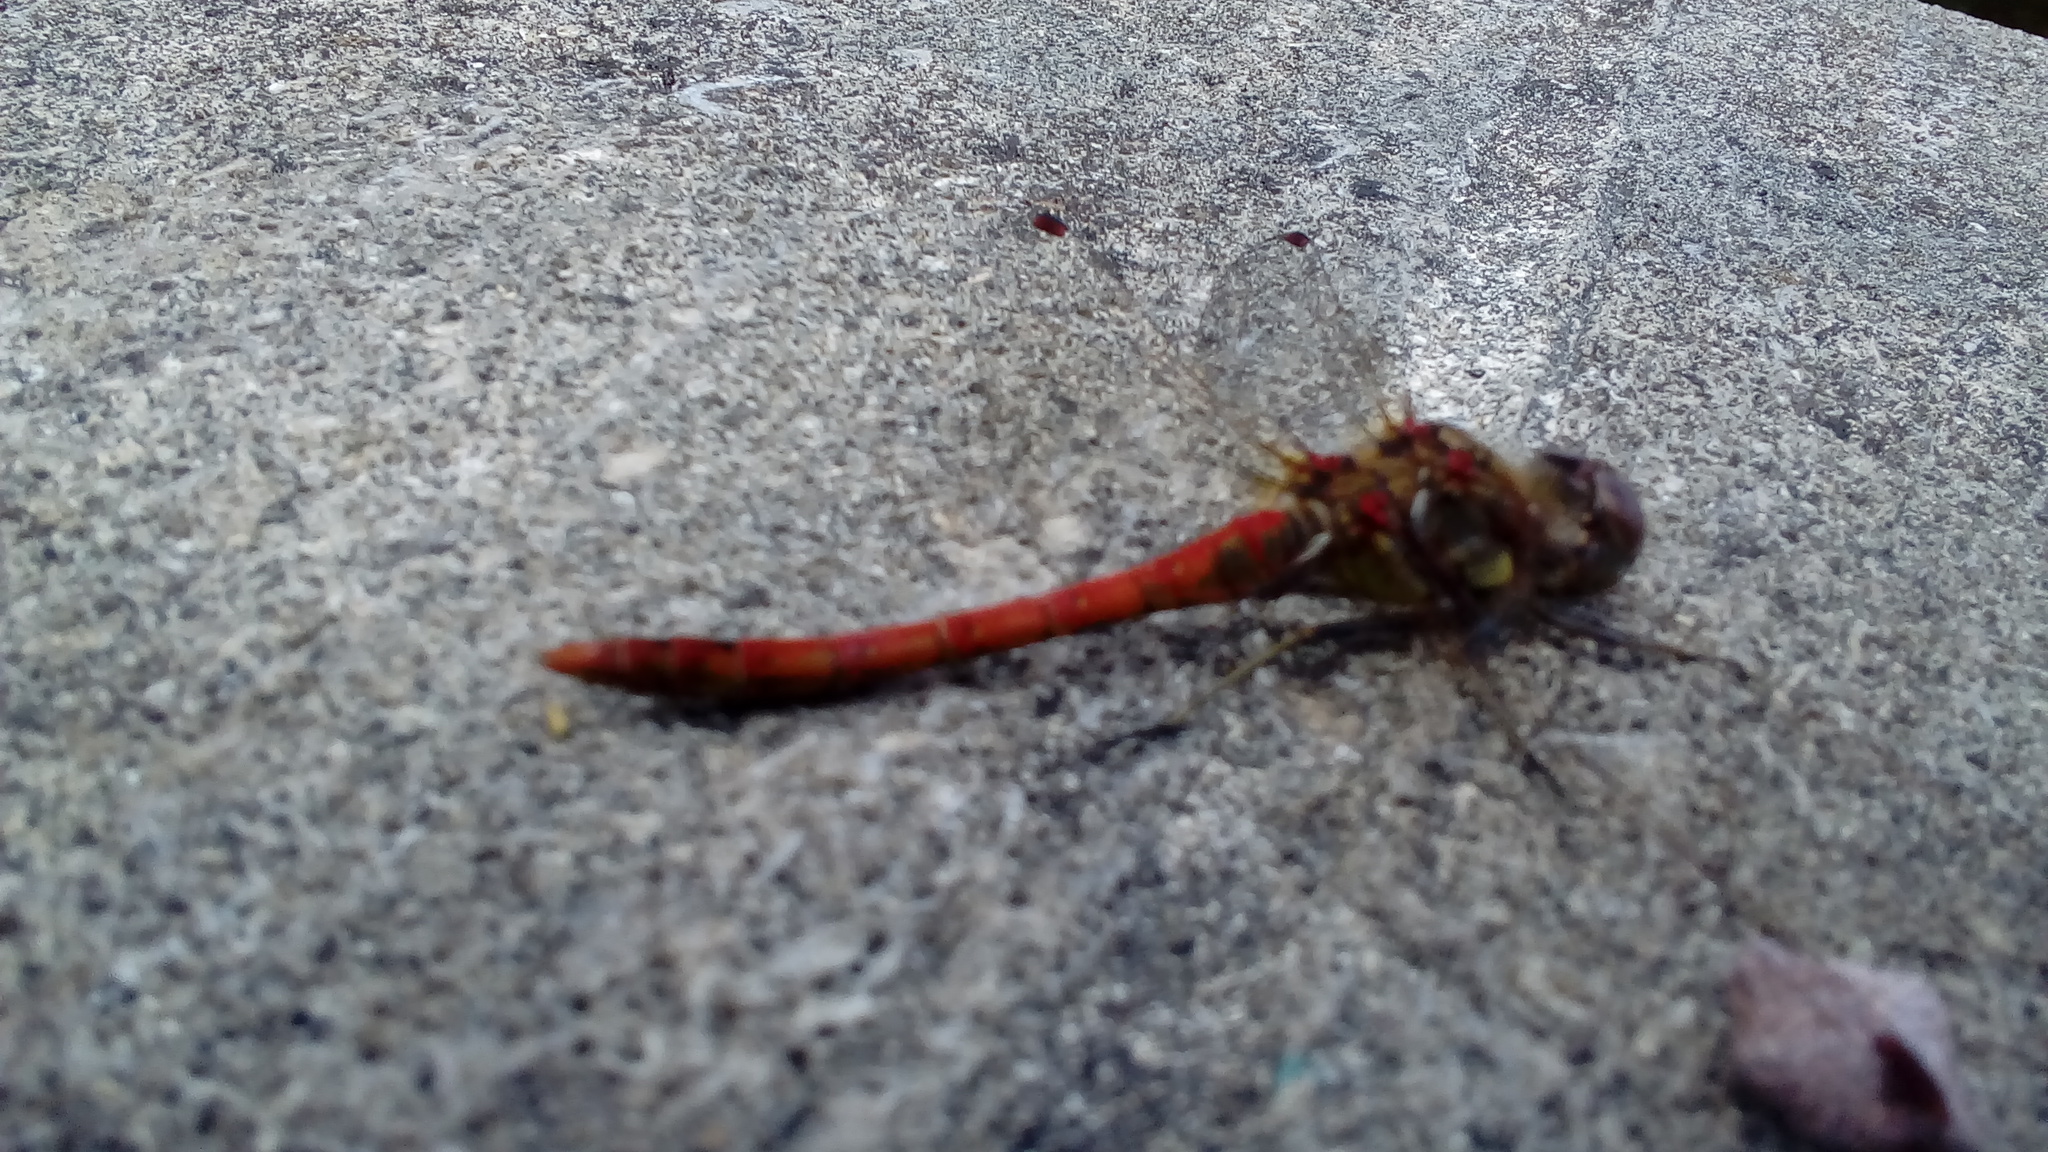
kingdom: Animalia
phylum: Arthropoda
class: Insecta
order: Odonata
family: Libellulidae
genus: Sympetrum
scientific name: Sympetrum striolatum
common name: Common darter
